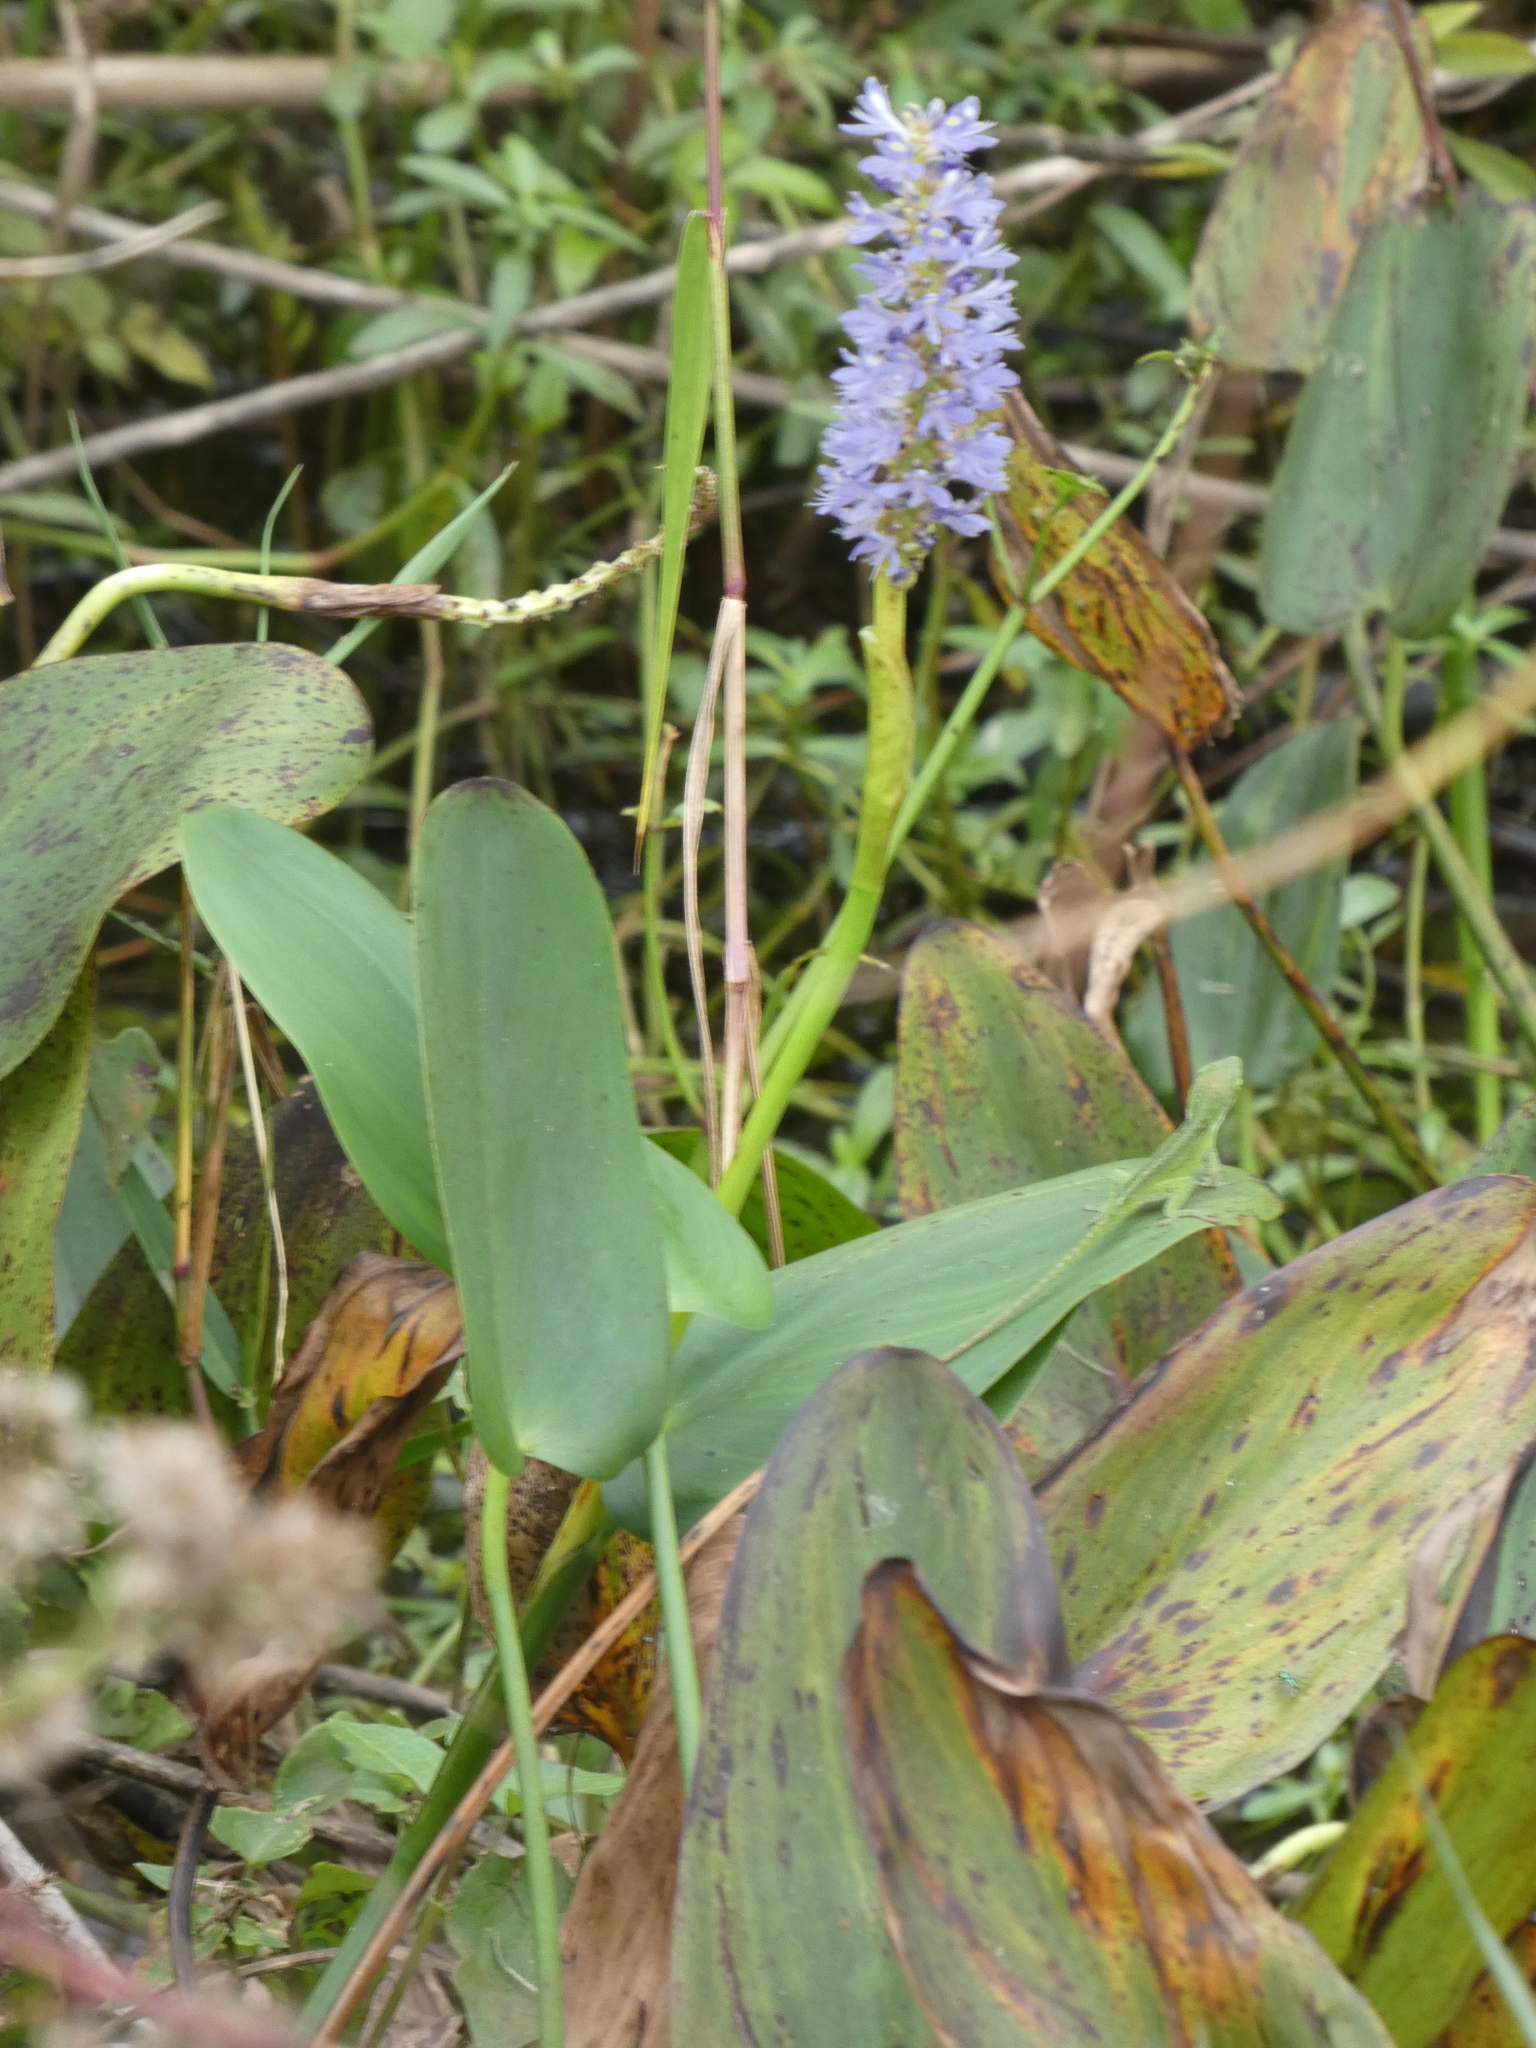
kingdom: Plantae
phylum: Tracheophyta
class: Liliopsida
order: Commelinales
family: Pontederiaceae
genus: Pontederia
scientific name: Pontederia cordata
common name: Pickerelweed
